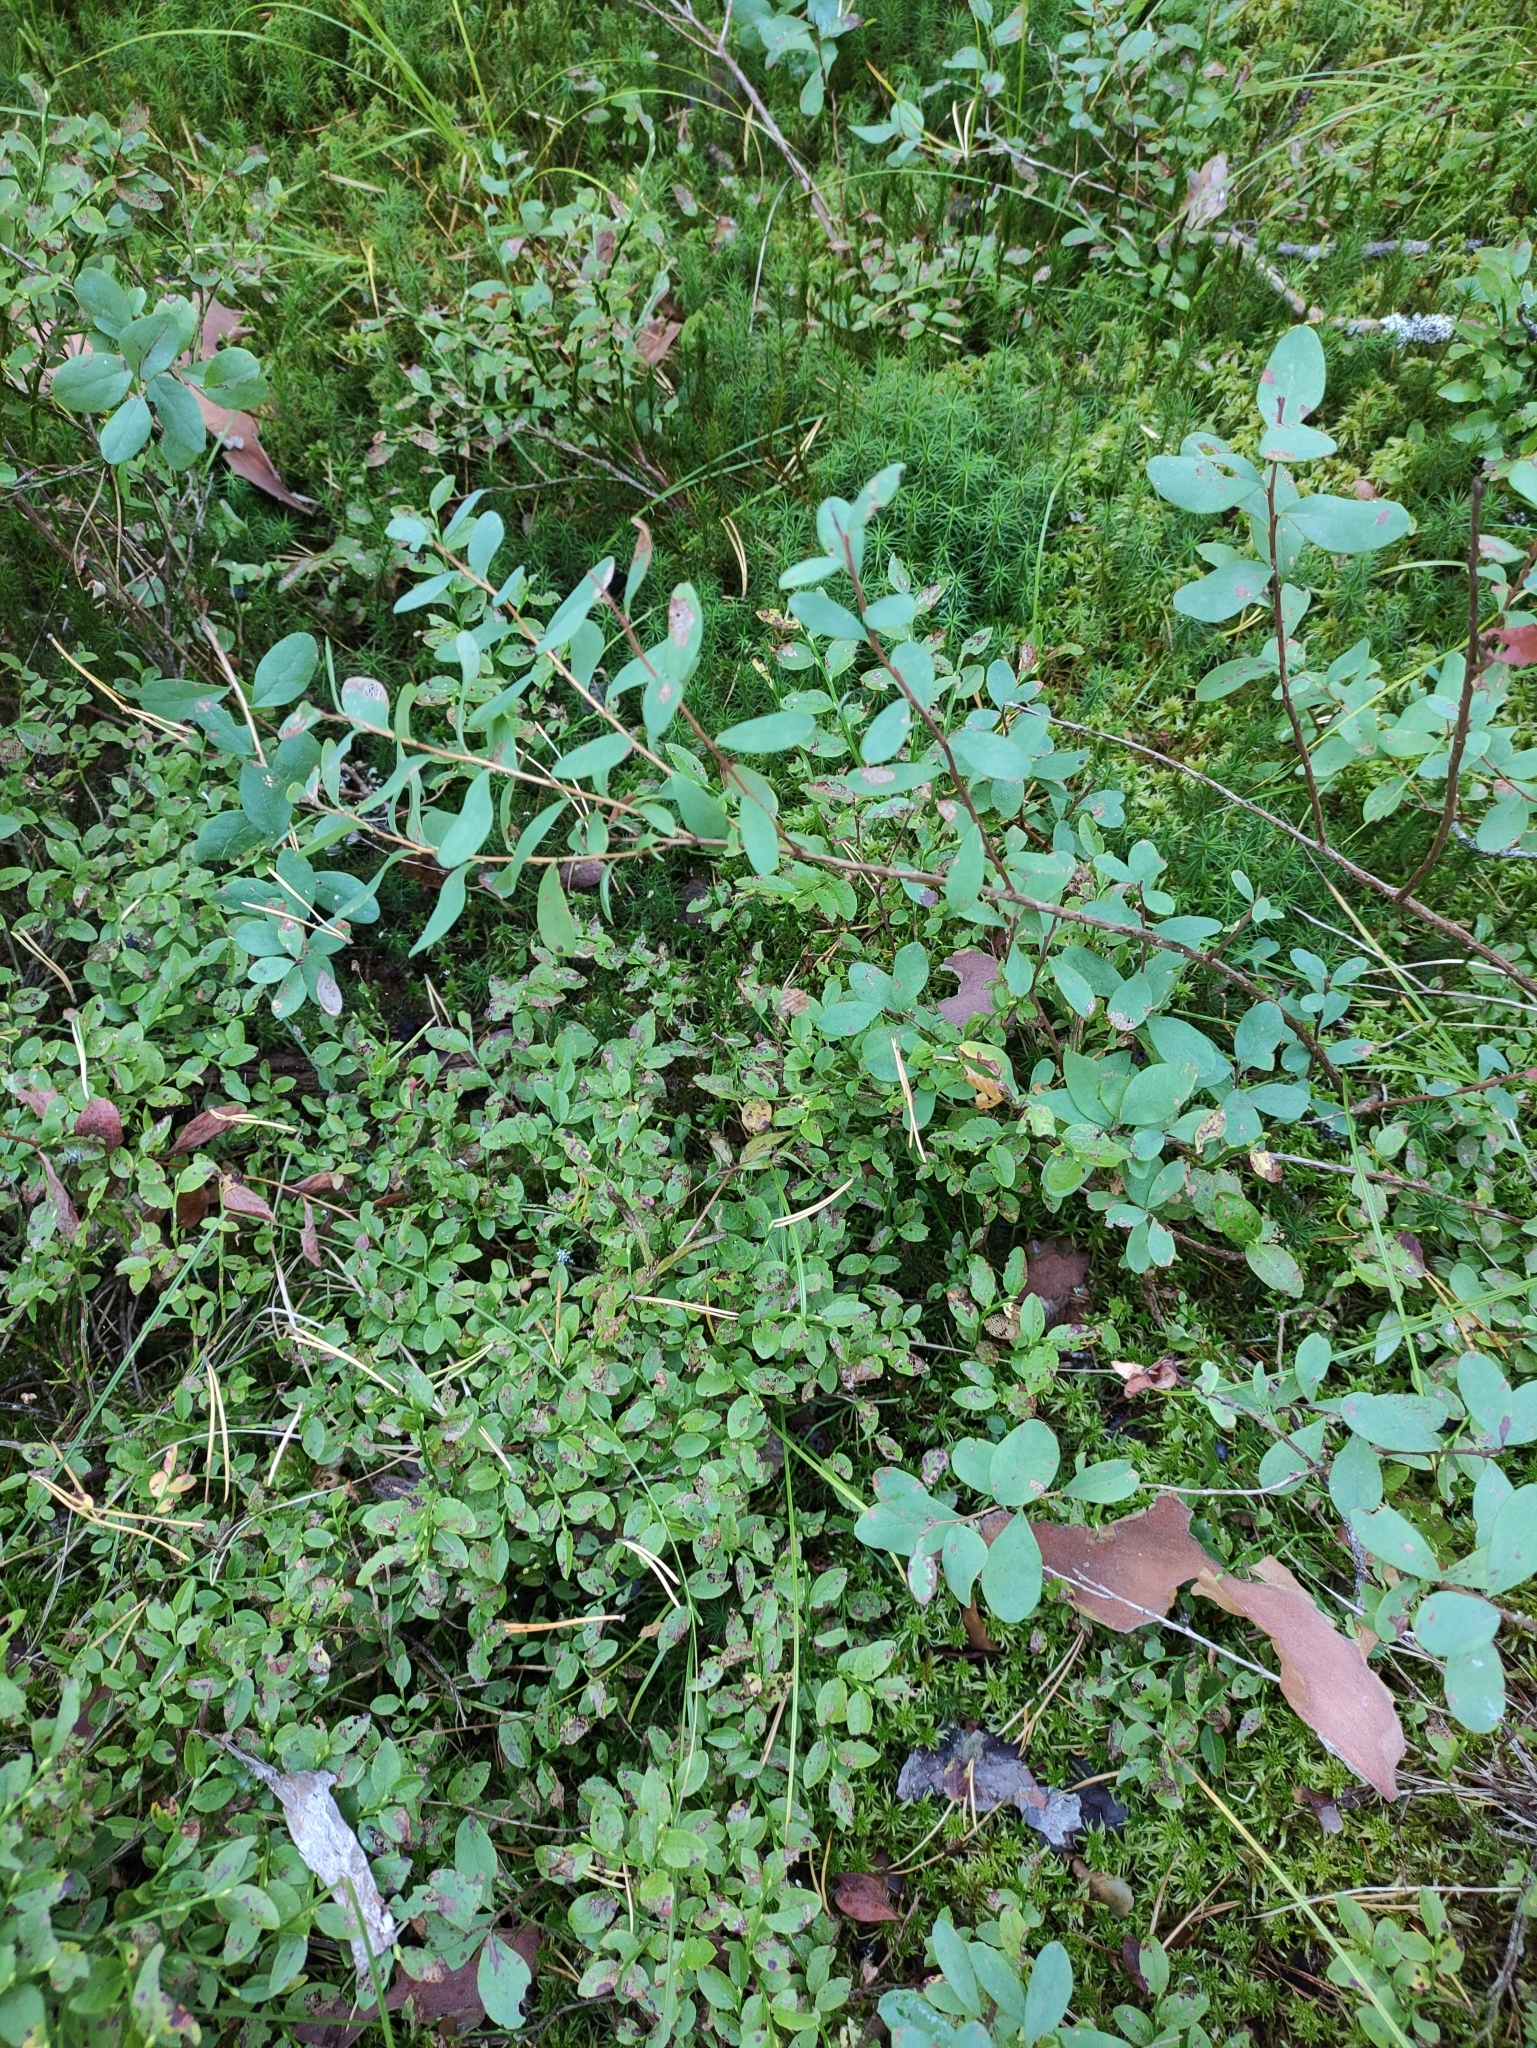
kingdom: Plantae
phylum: Tracheophyta
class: Magnoliopsida
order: Ericales
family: Ericaceae
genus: Vaccinium
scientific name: Vaccinium uliginosum
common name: Bog bilberry
